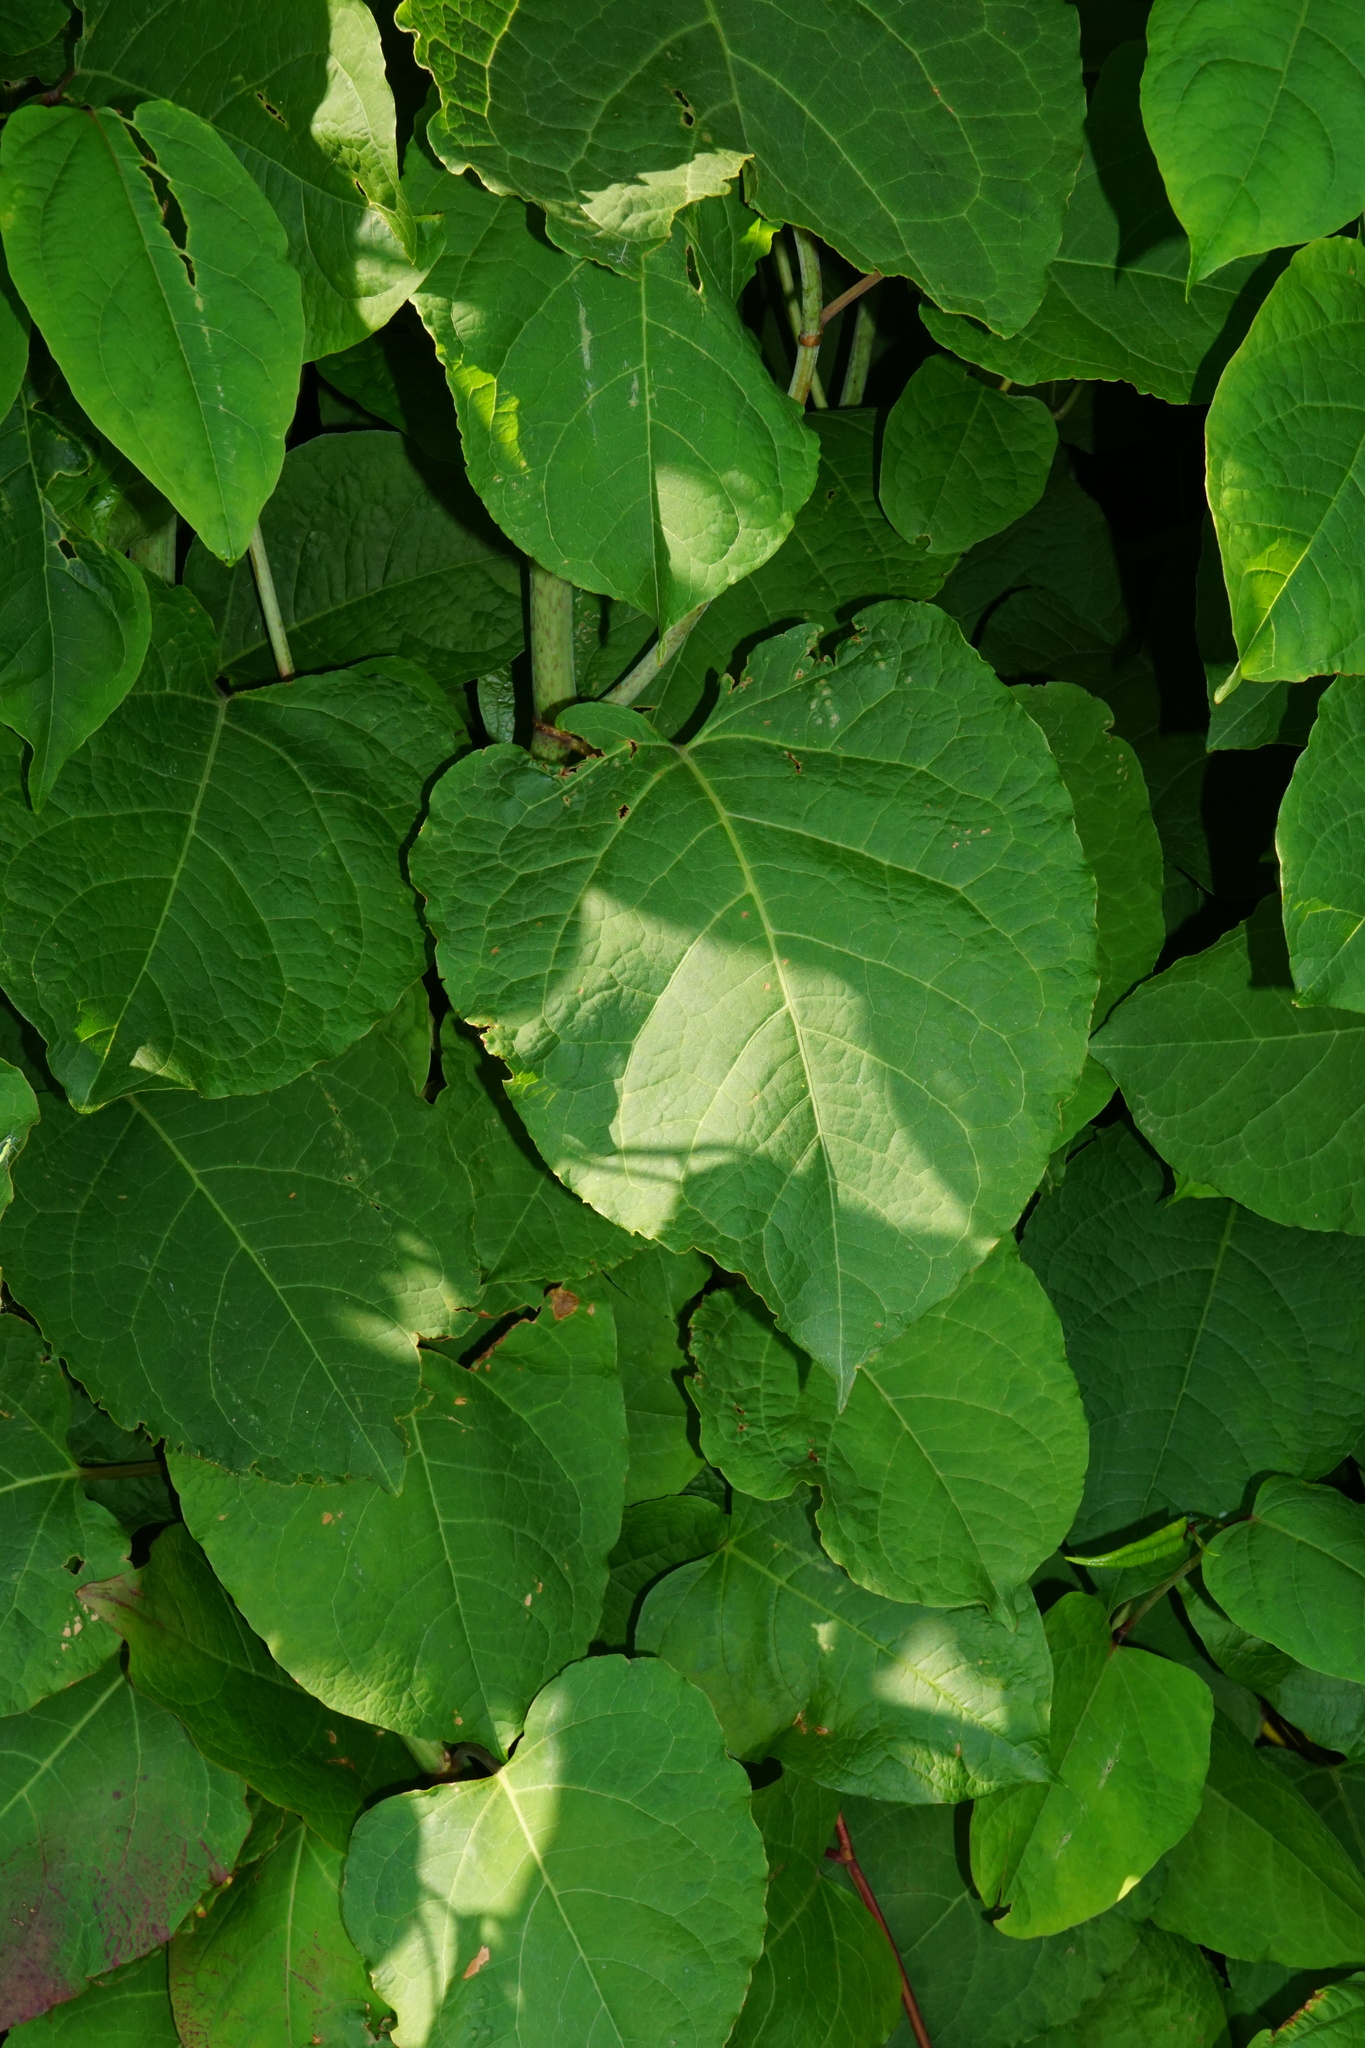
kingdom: Plantae
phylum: Tracheophyta
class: Magnoliopsida
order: Caryophyllales
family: Polygonaceae
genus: Reynoutria
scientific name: Reynoutria bohemica
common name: Bohemian knotweed
